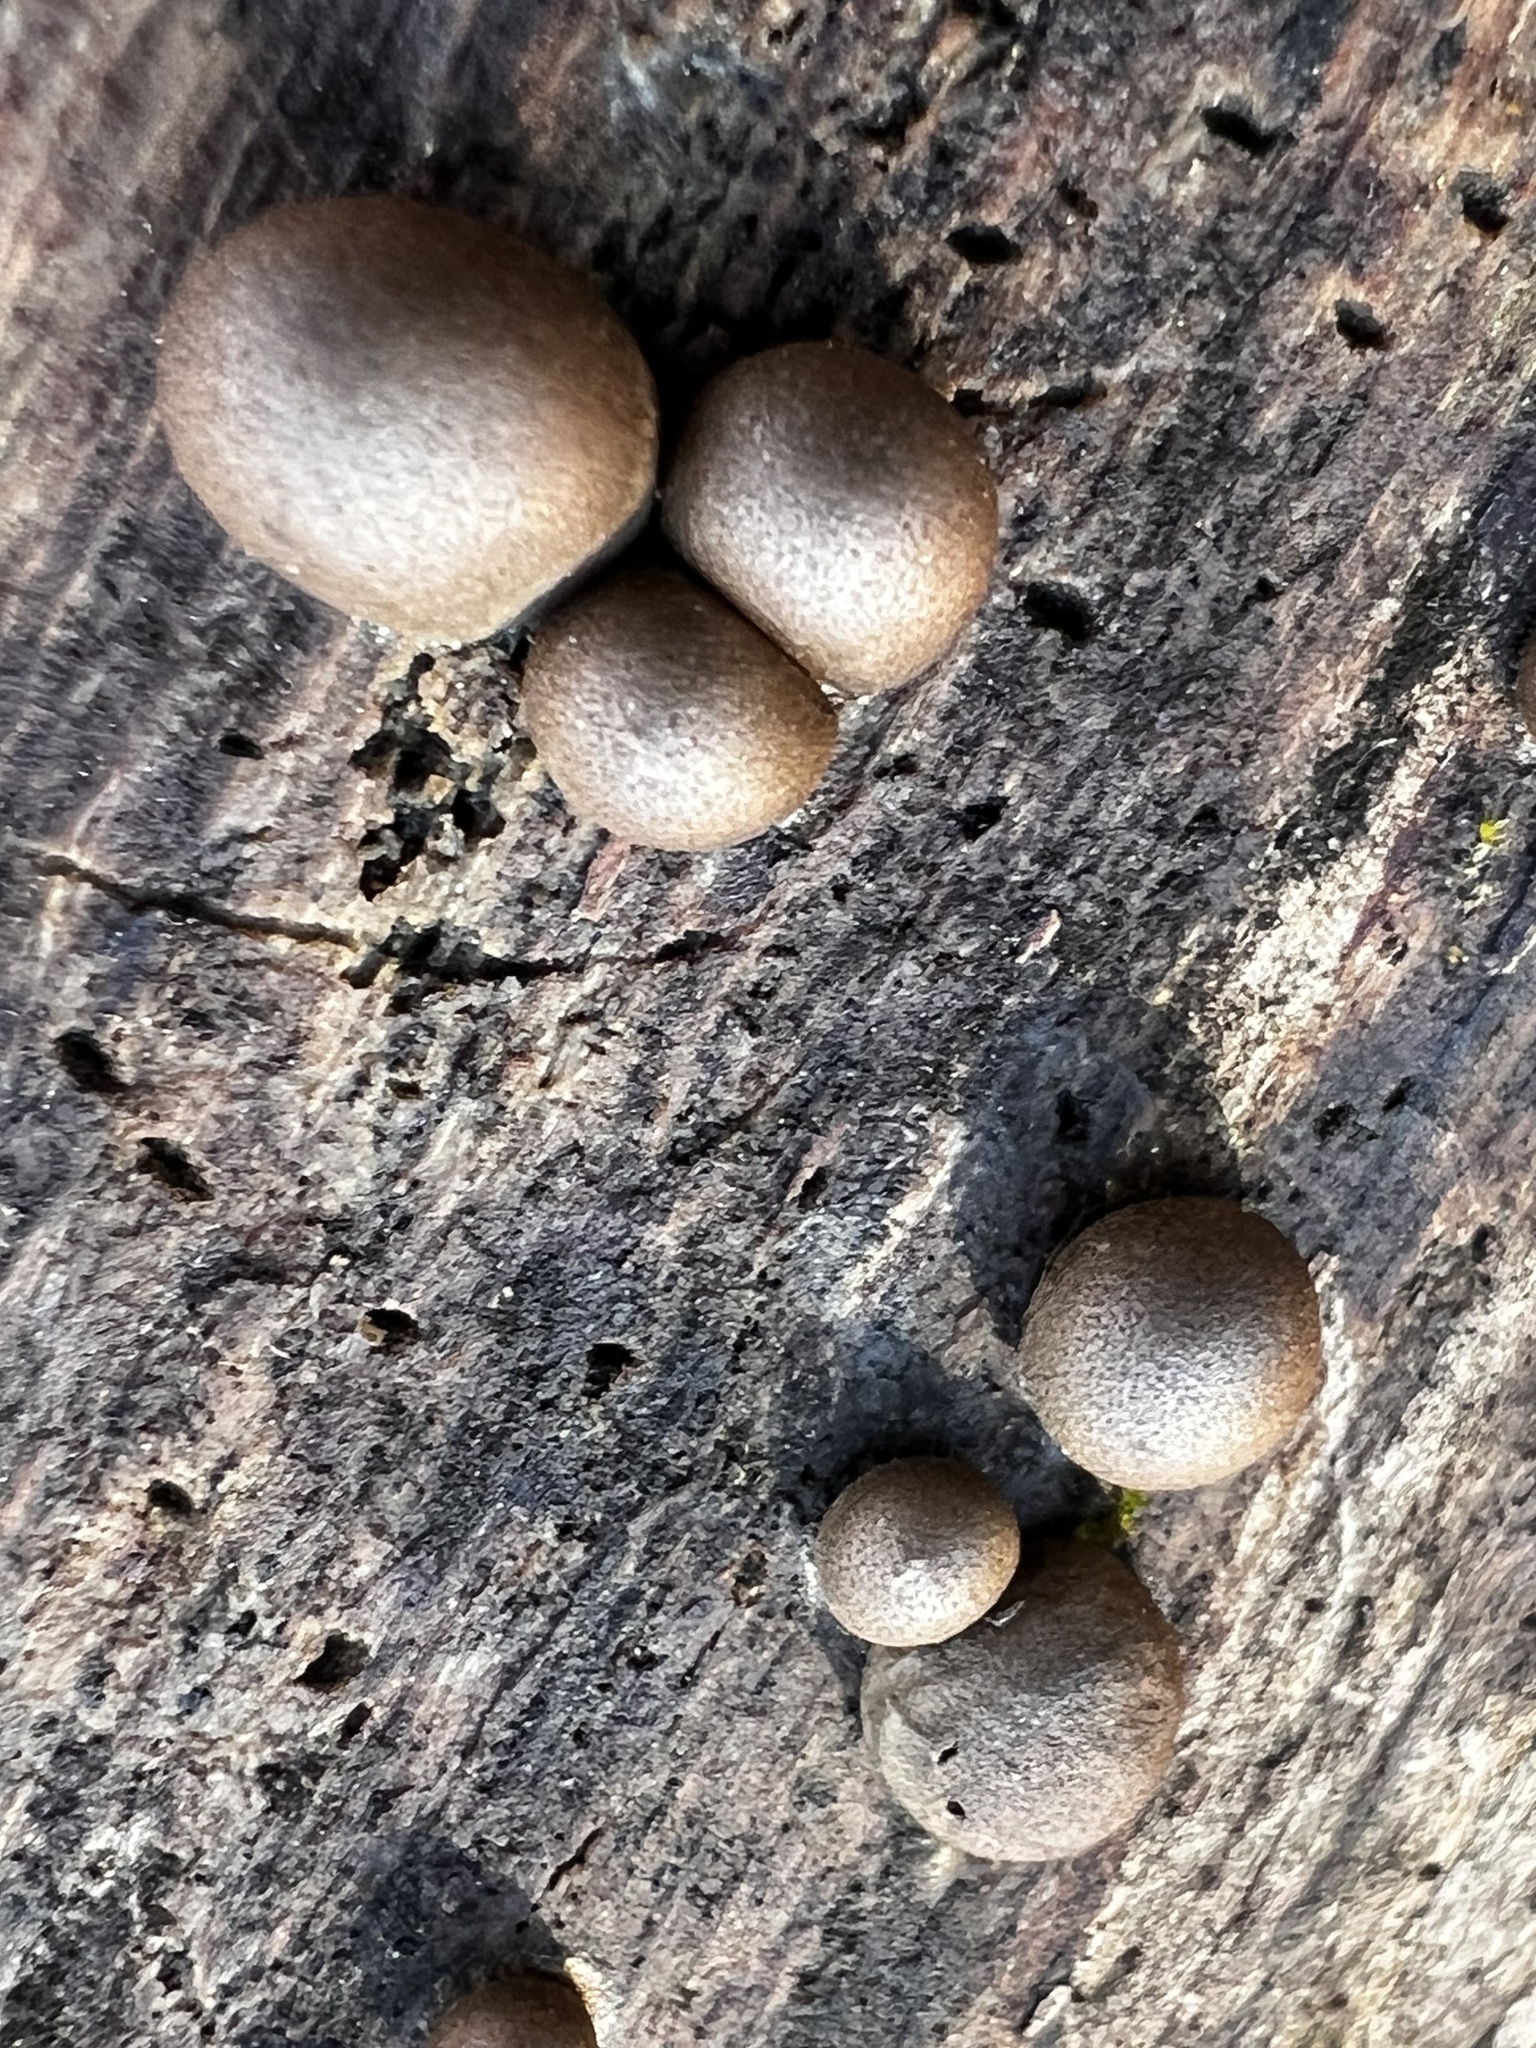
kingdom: Protozoa
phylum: Mycetozoa
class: Myxomycetes
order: Cribrariales
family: Tubiferaceae
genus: Lycogala
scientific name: Lycogala epidendrum
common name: Wolf's milk
